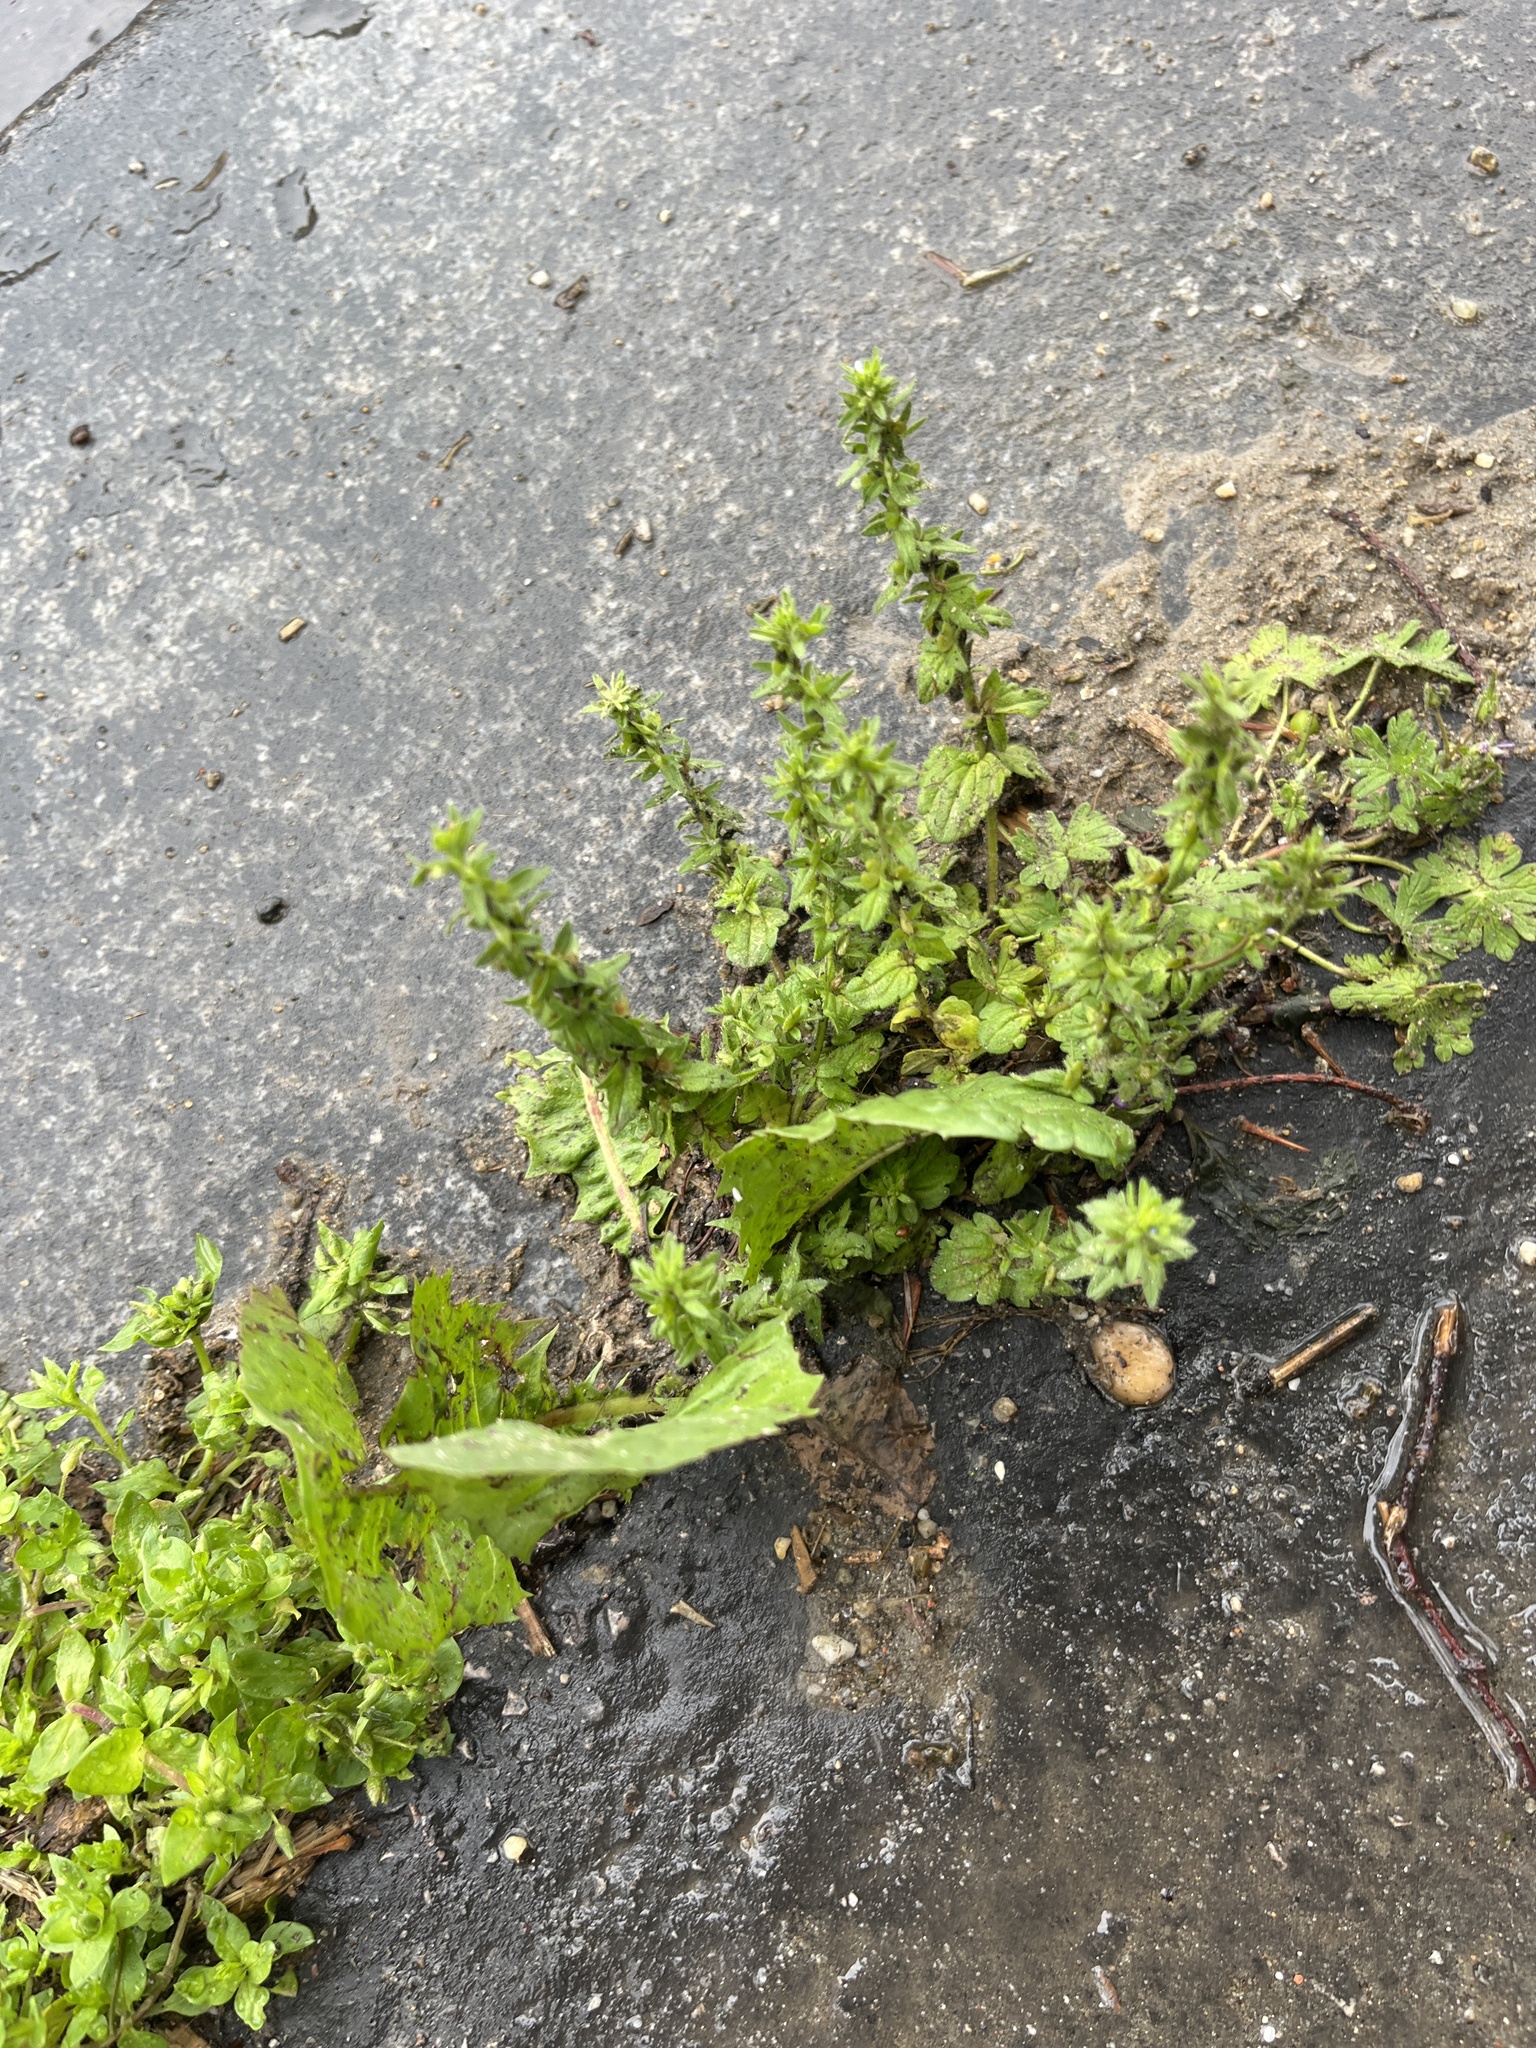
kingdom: Plantae
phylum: Tracheophyta
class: Magnoliopsida
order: Lamiales
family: Plantaginaceae
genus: Veronica
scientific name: Veronica arvensis
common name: Corn speedwell
